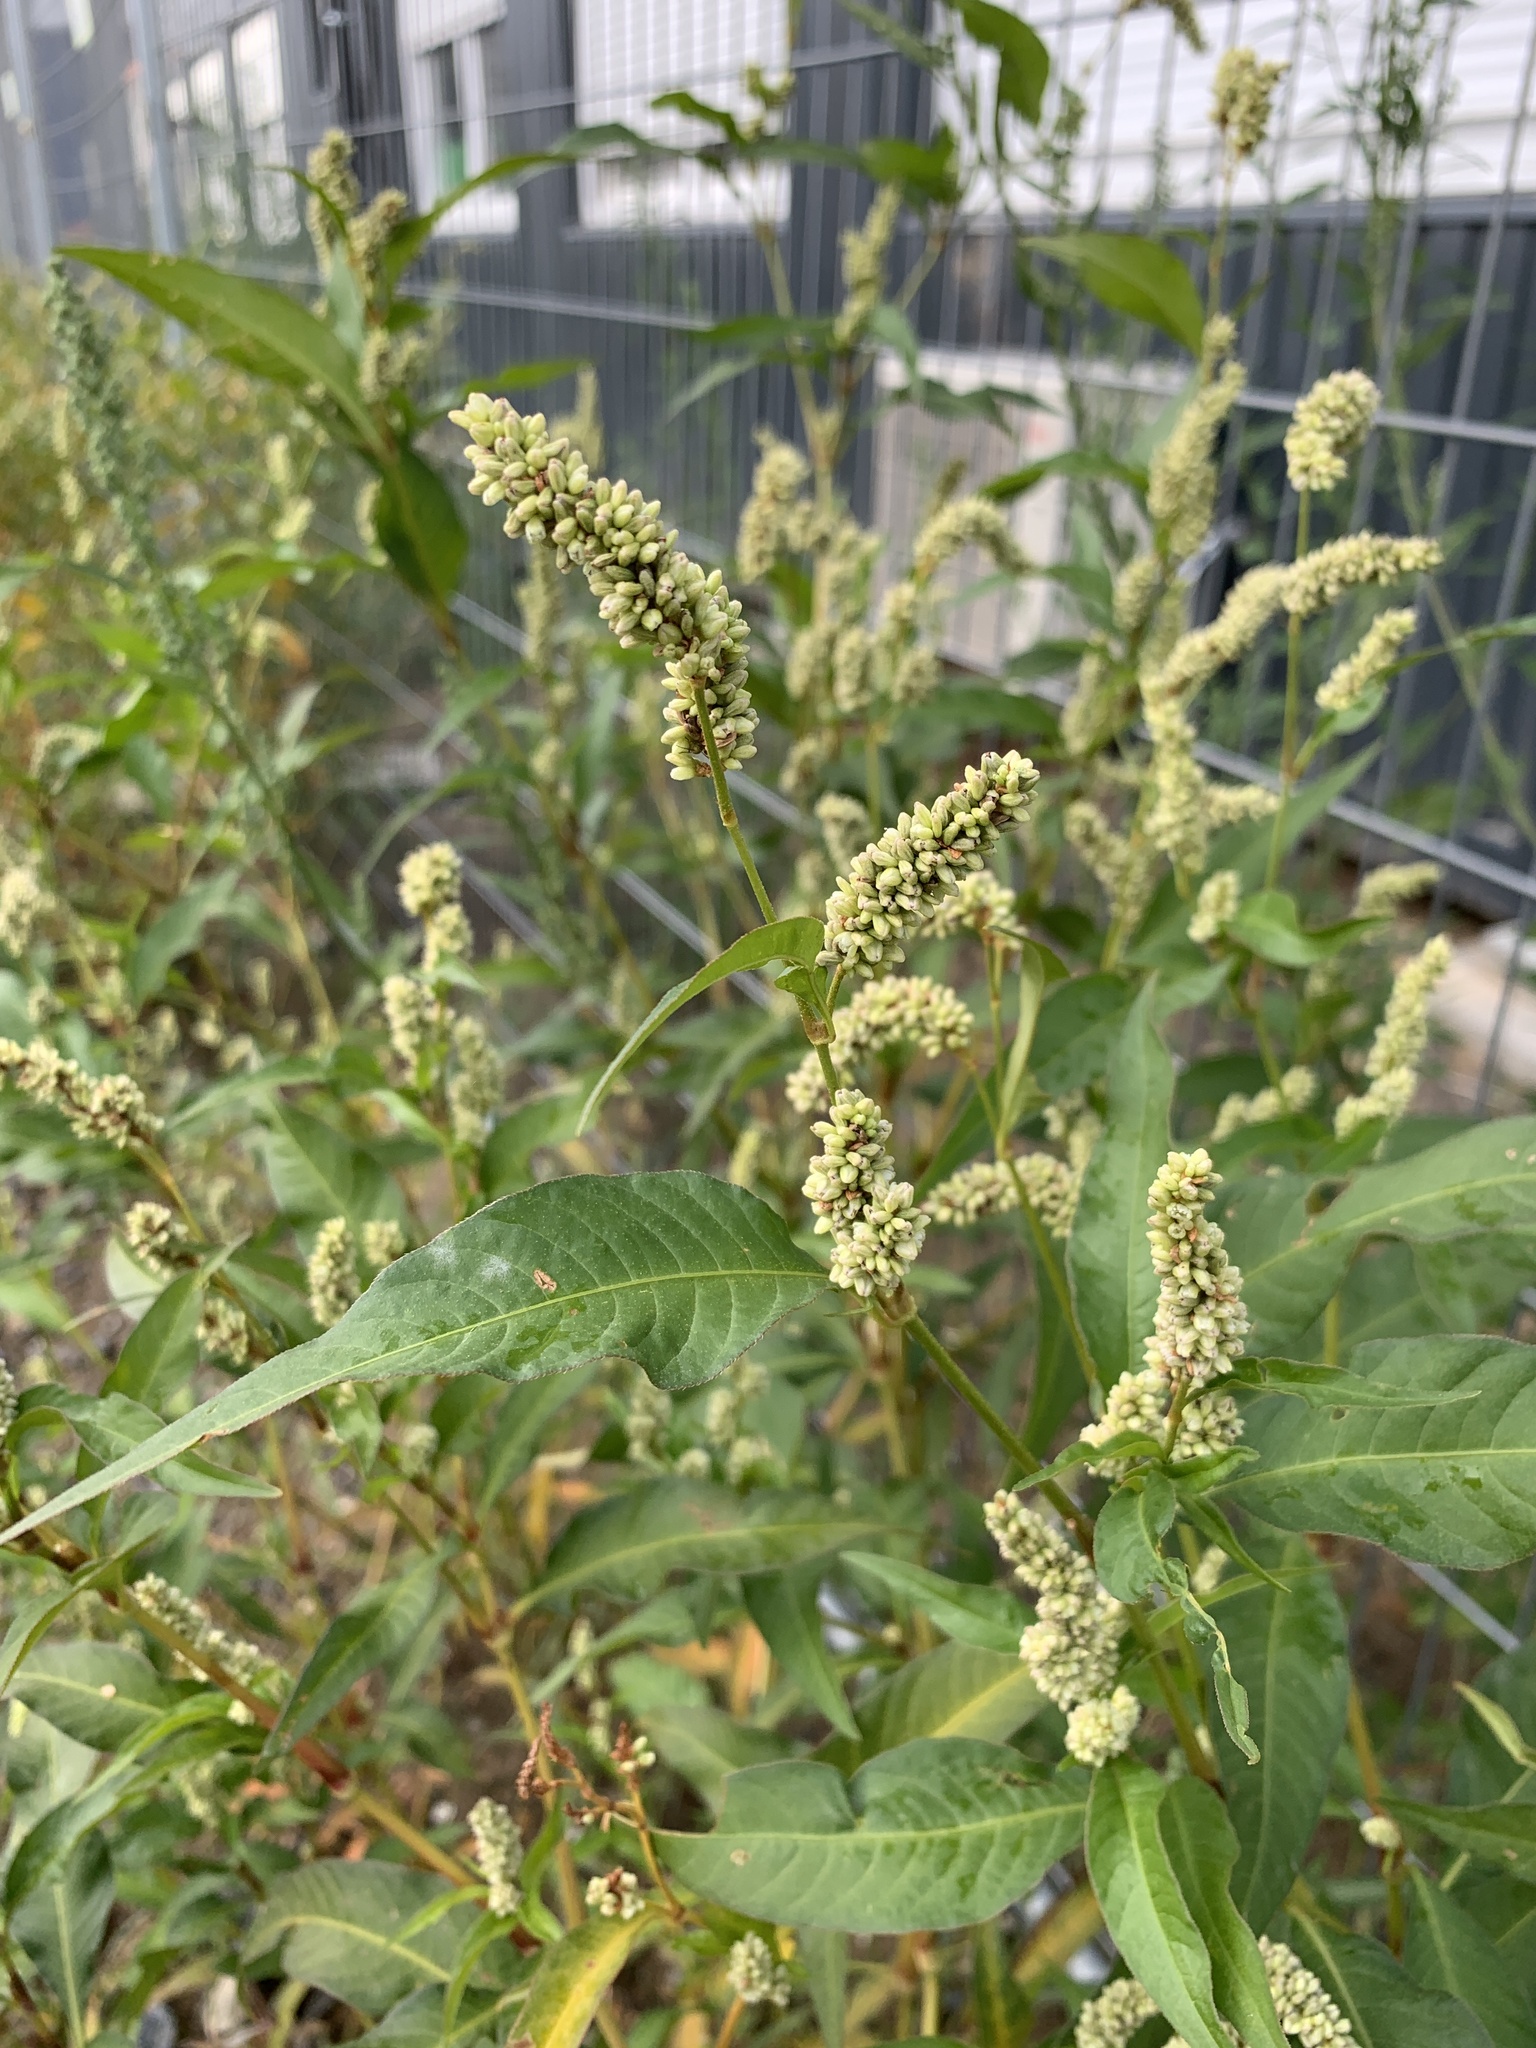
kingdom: Plantae
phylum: Tracheophyta
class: Magnoliopsida
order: Caryophyllales
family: Polygonaceae
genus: Persicaria
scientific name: Persicaria lapathifolia
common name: Curlytop knotweed
